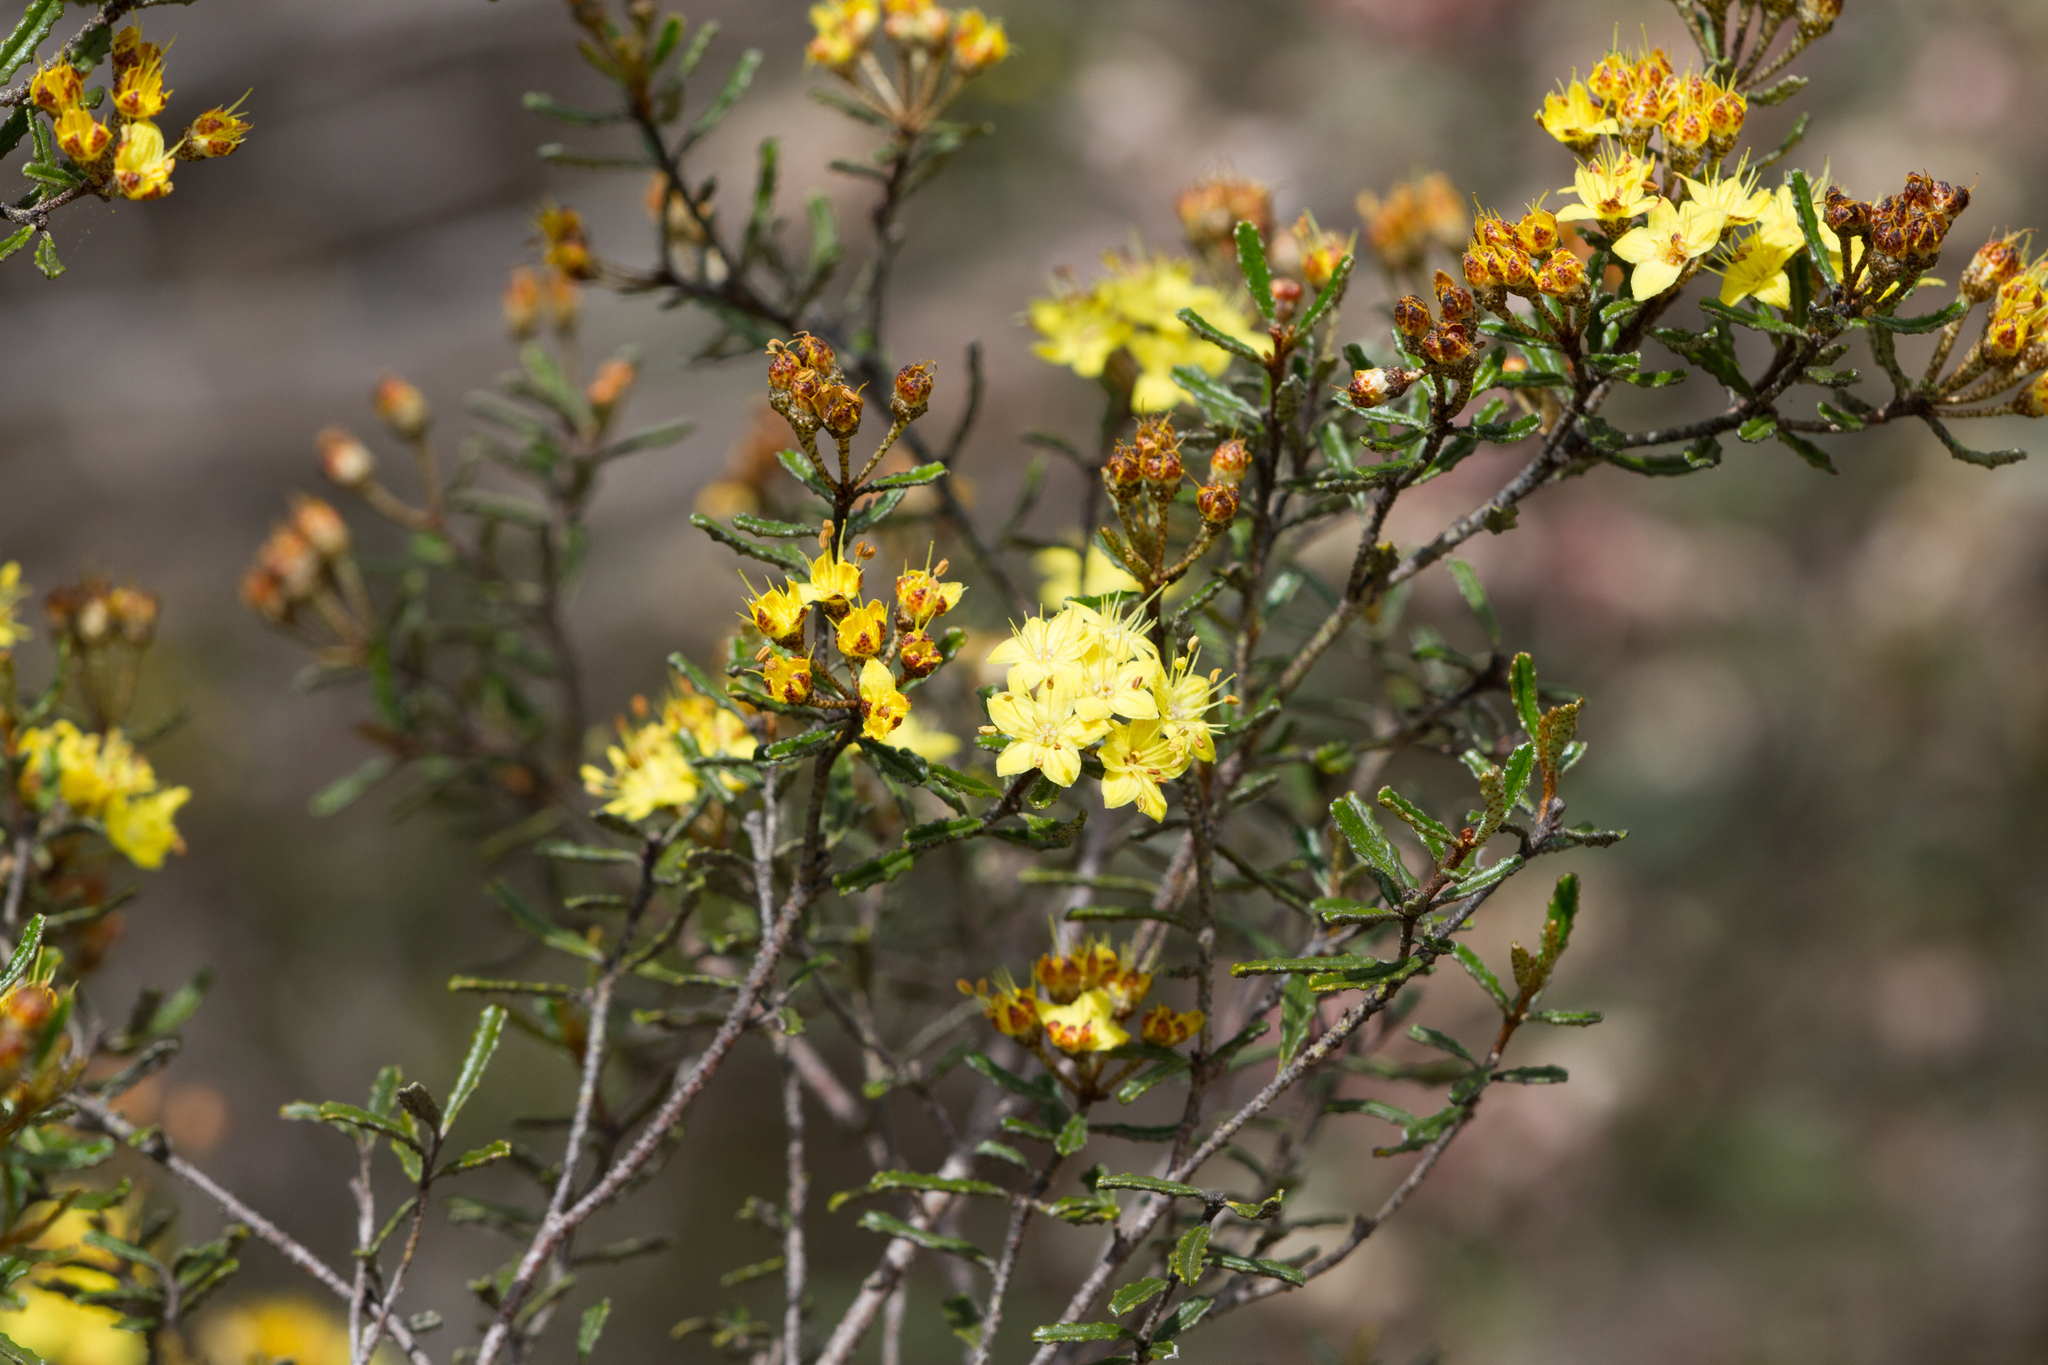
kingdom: Plantae
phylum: Tracheophyta
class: Magnoliopsida
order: Sapindales
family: Rutaceae
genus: Phebalium
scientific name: Phebalium bullatum
